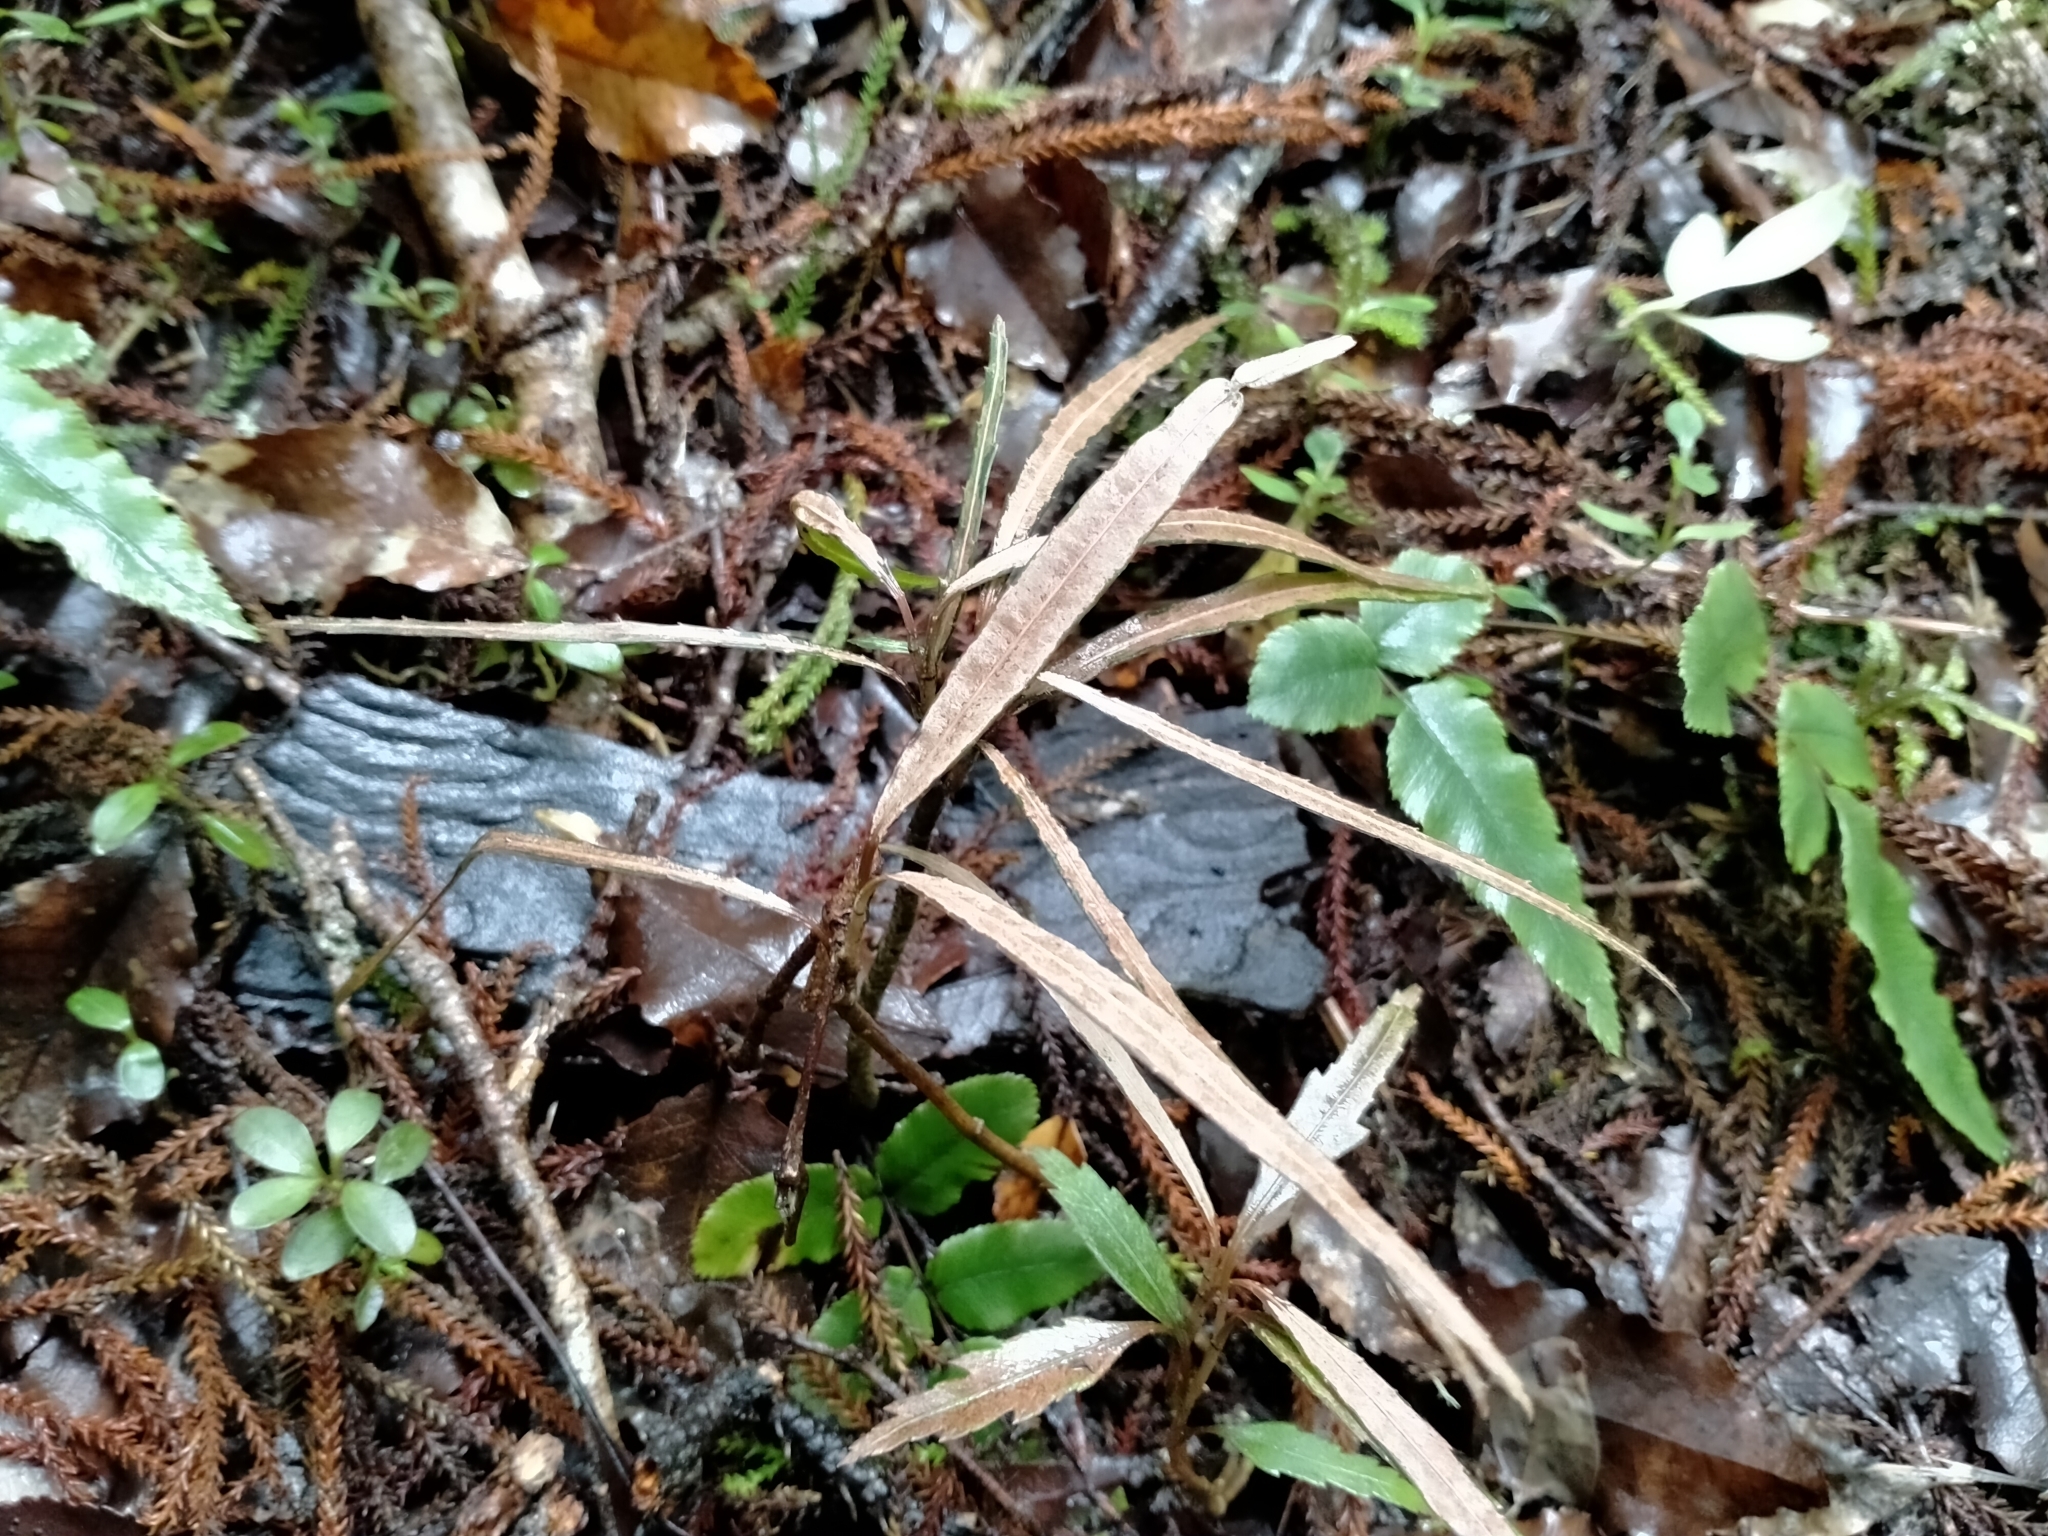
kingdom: Plantae
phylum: Tracheophyta
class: Magnoliopsida
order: Apiales
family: Araliaceae
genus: Pseudopanax
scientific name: Pseudopanax crassifolius
